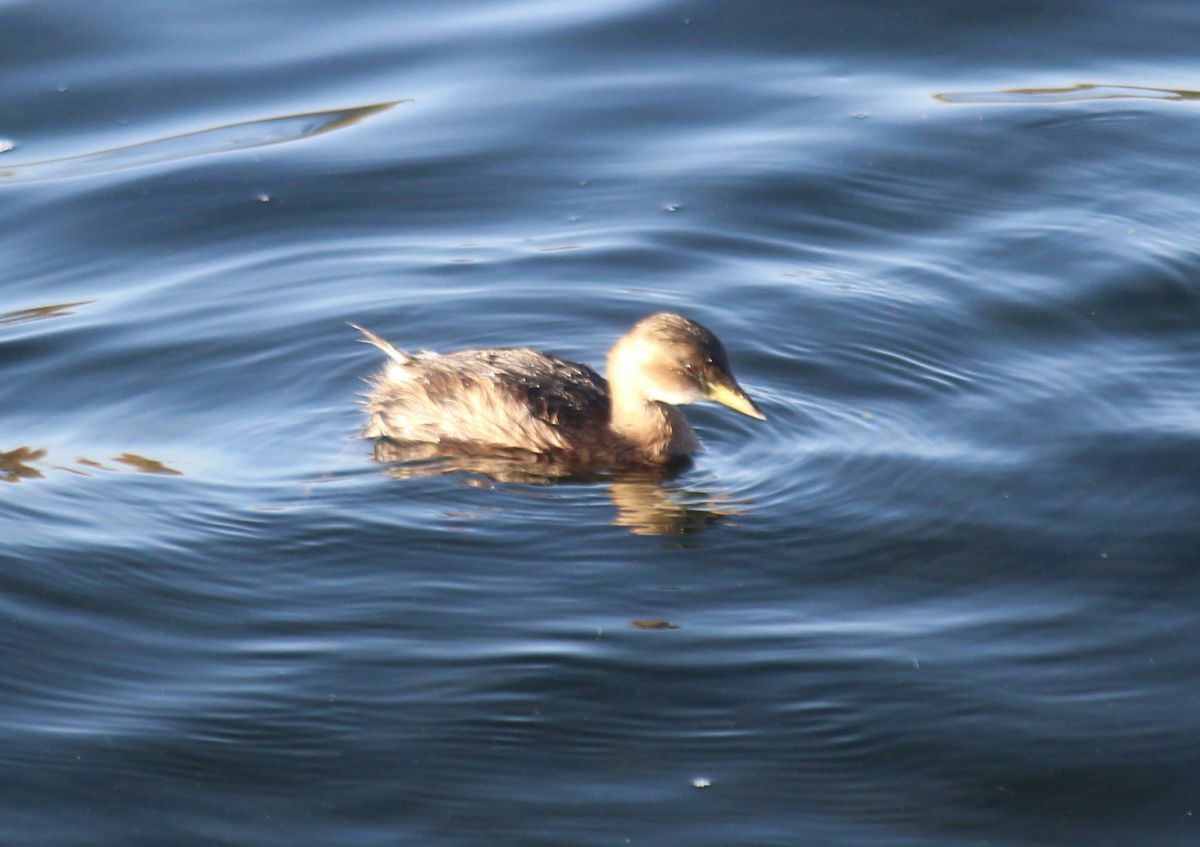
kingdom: Animalia
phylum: Chordata
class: Aves
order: Podicipediformes
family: Podicipedidae
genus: Tachybaptus
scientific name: Tachybaptus ruficollis
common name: Little grebe
